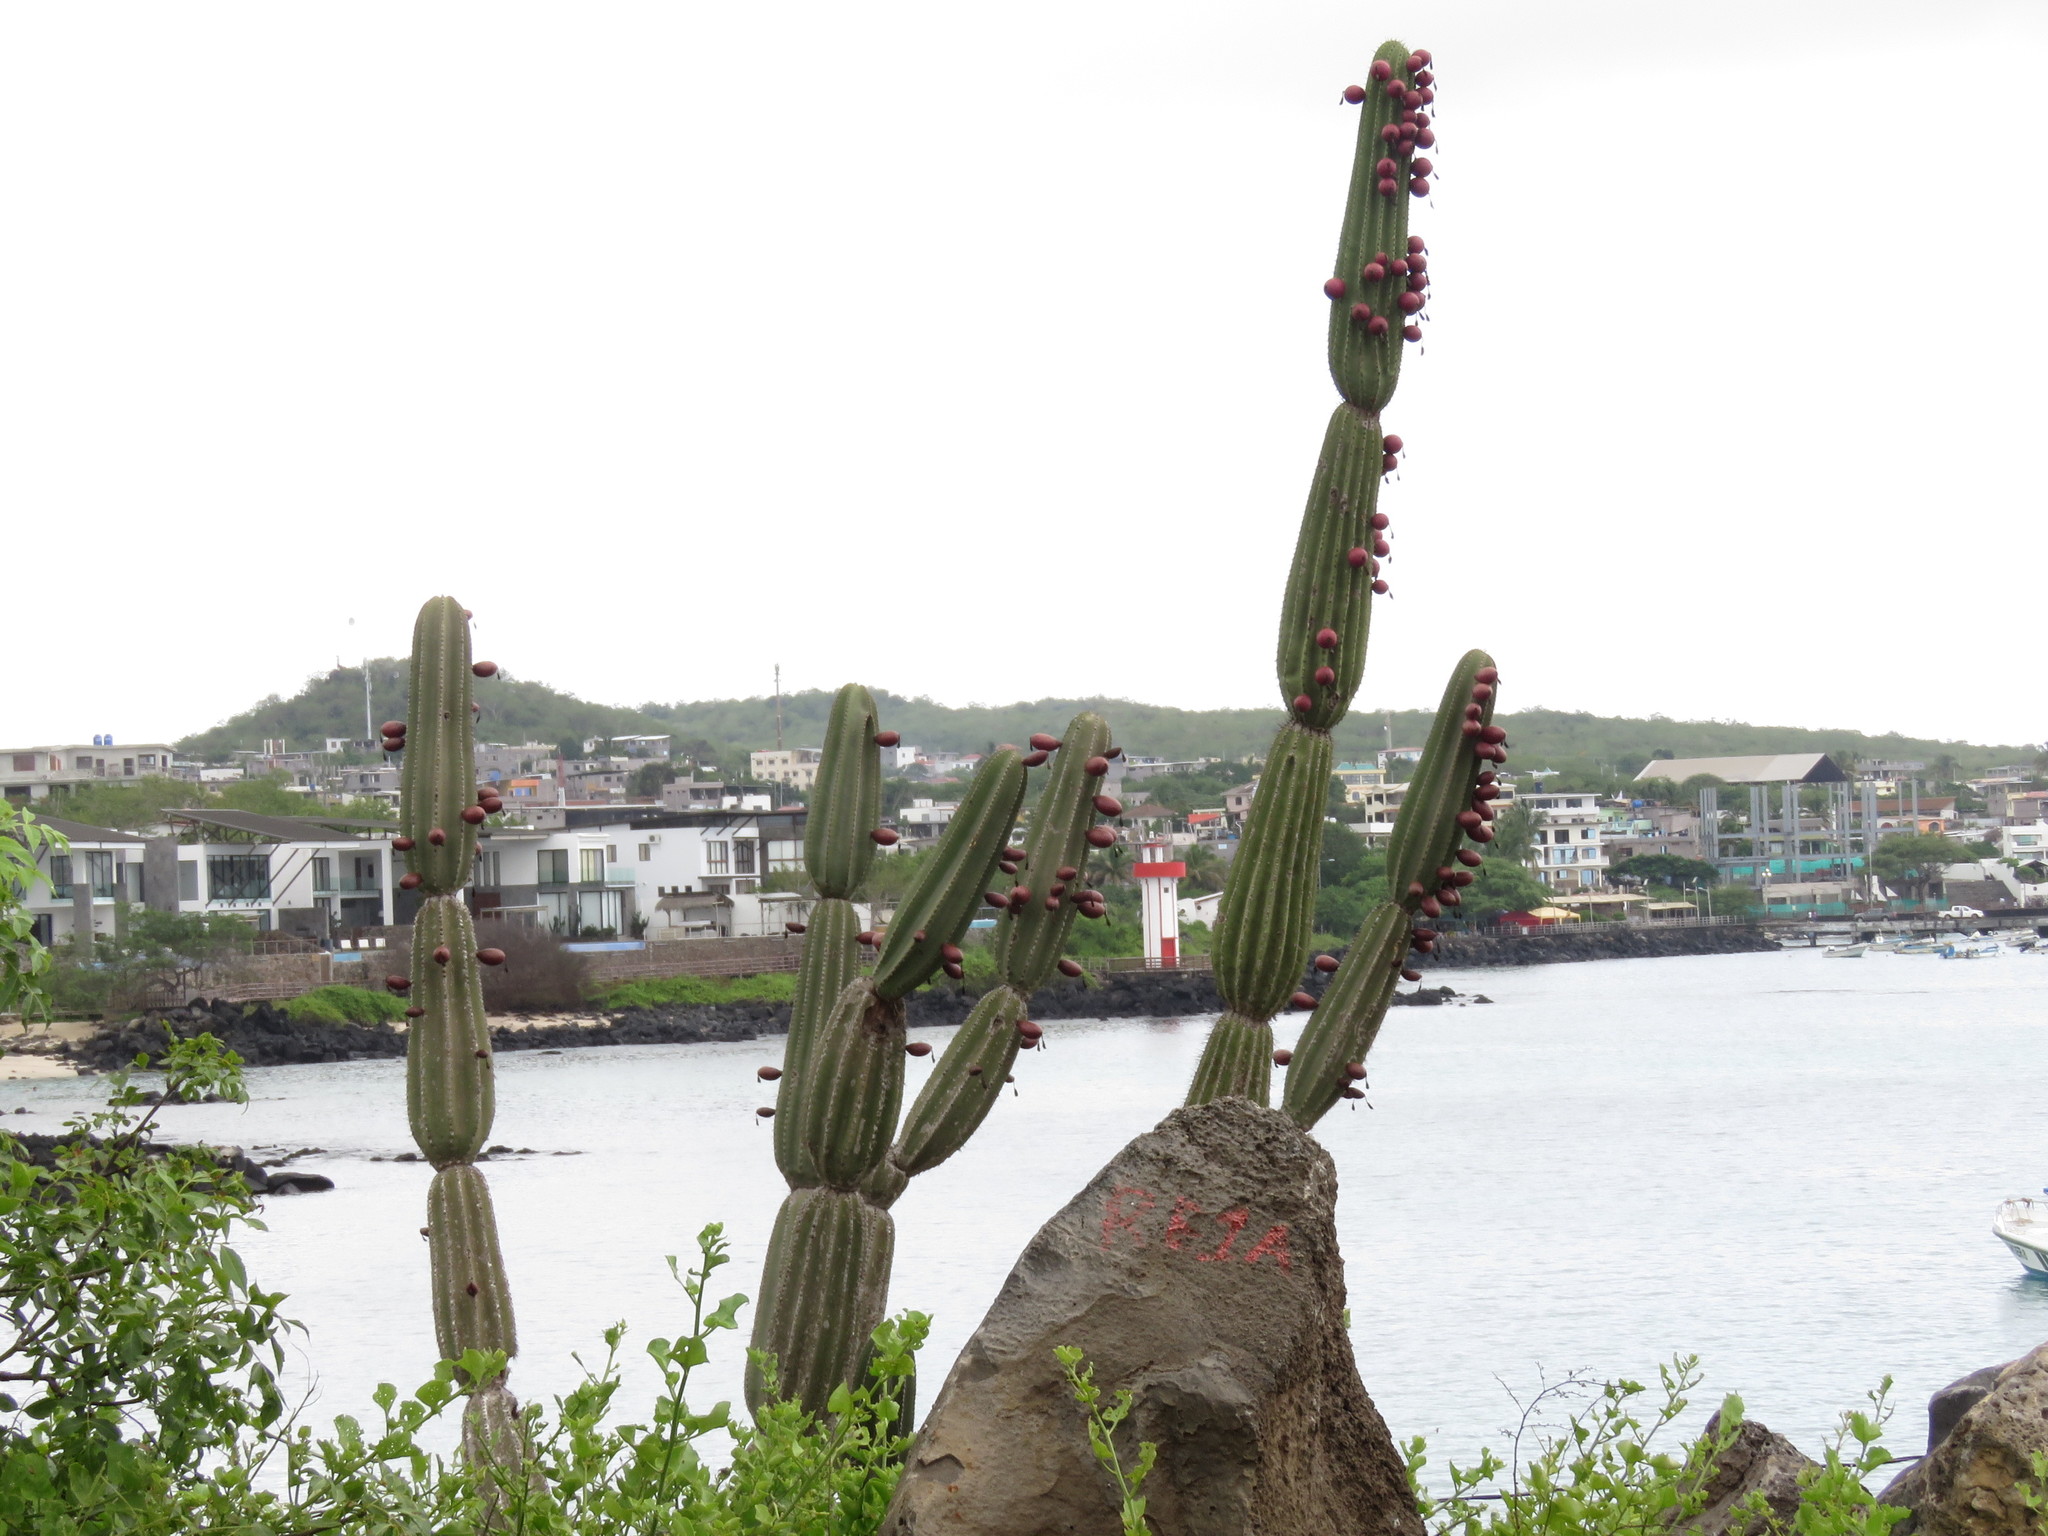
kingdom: Plantae
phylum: Tracheophyta
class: Magnoliopsida
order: Caryophyllales
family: Cactaceae
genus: Jasminocereus
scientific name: Jasminocereus thouarsii
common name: Candelabra cactus
